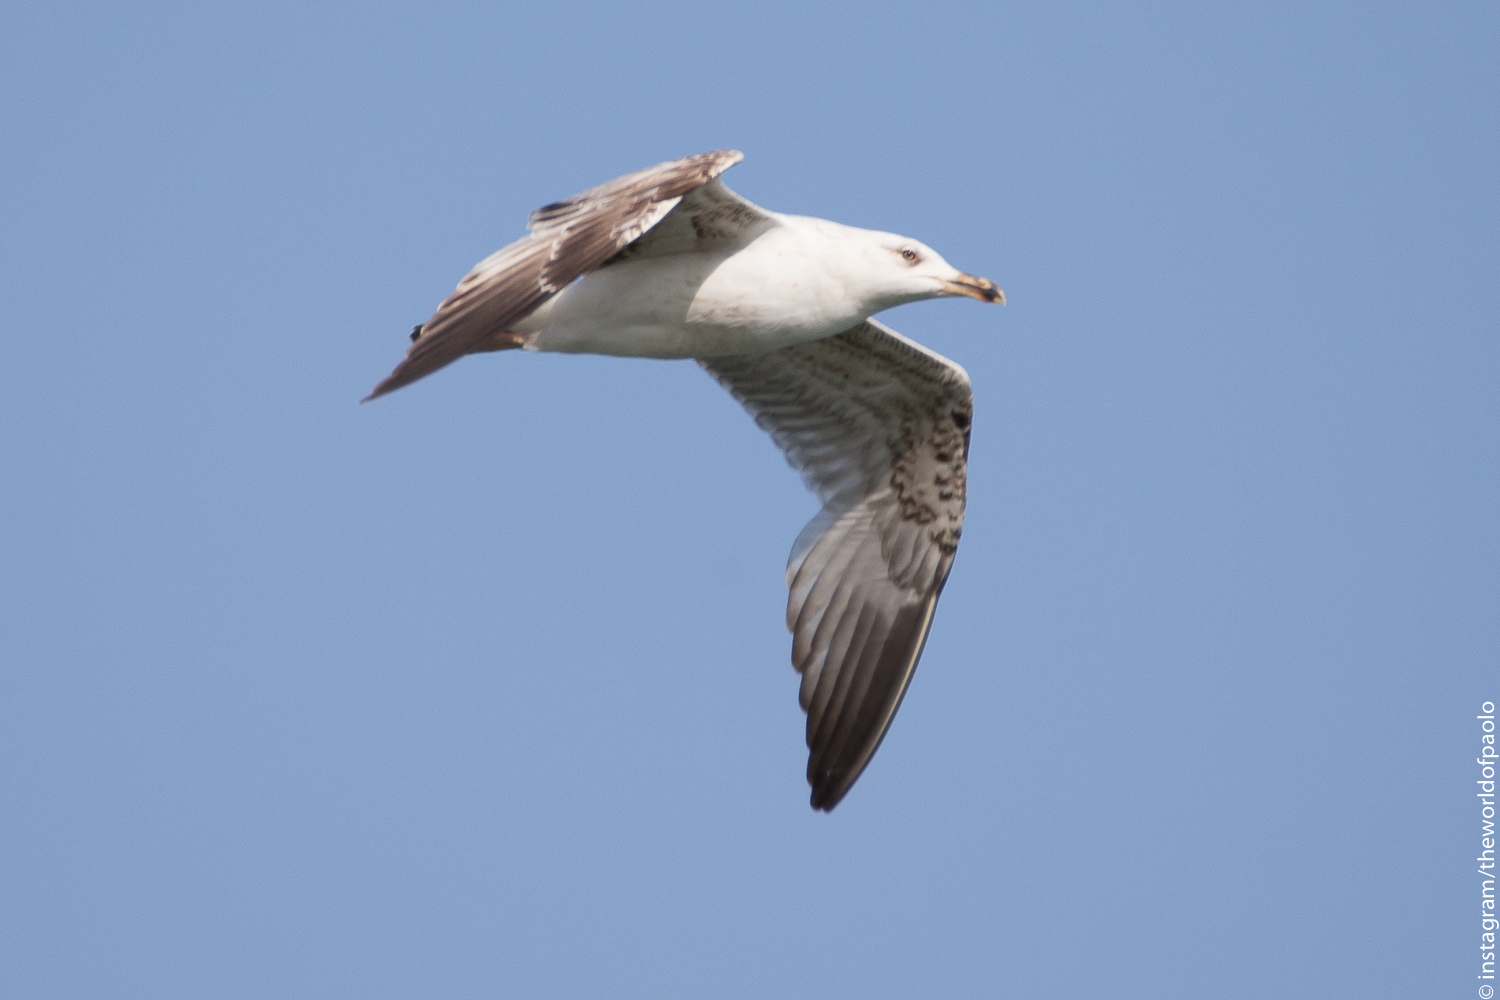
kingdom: Animalia
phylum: Chordata
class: Aves
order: Charadriiformes
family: Laridae
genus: Larus
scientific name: Larus michahellis
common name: Yellow-legged gull
